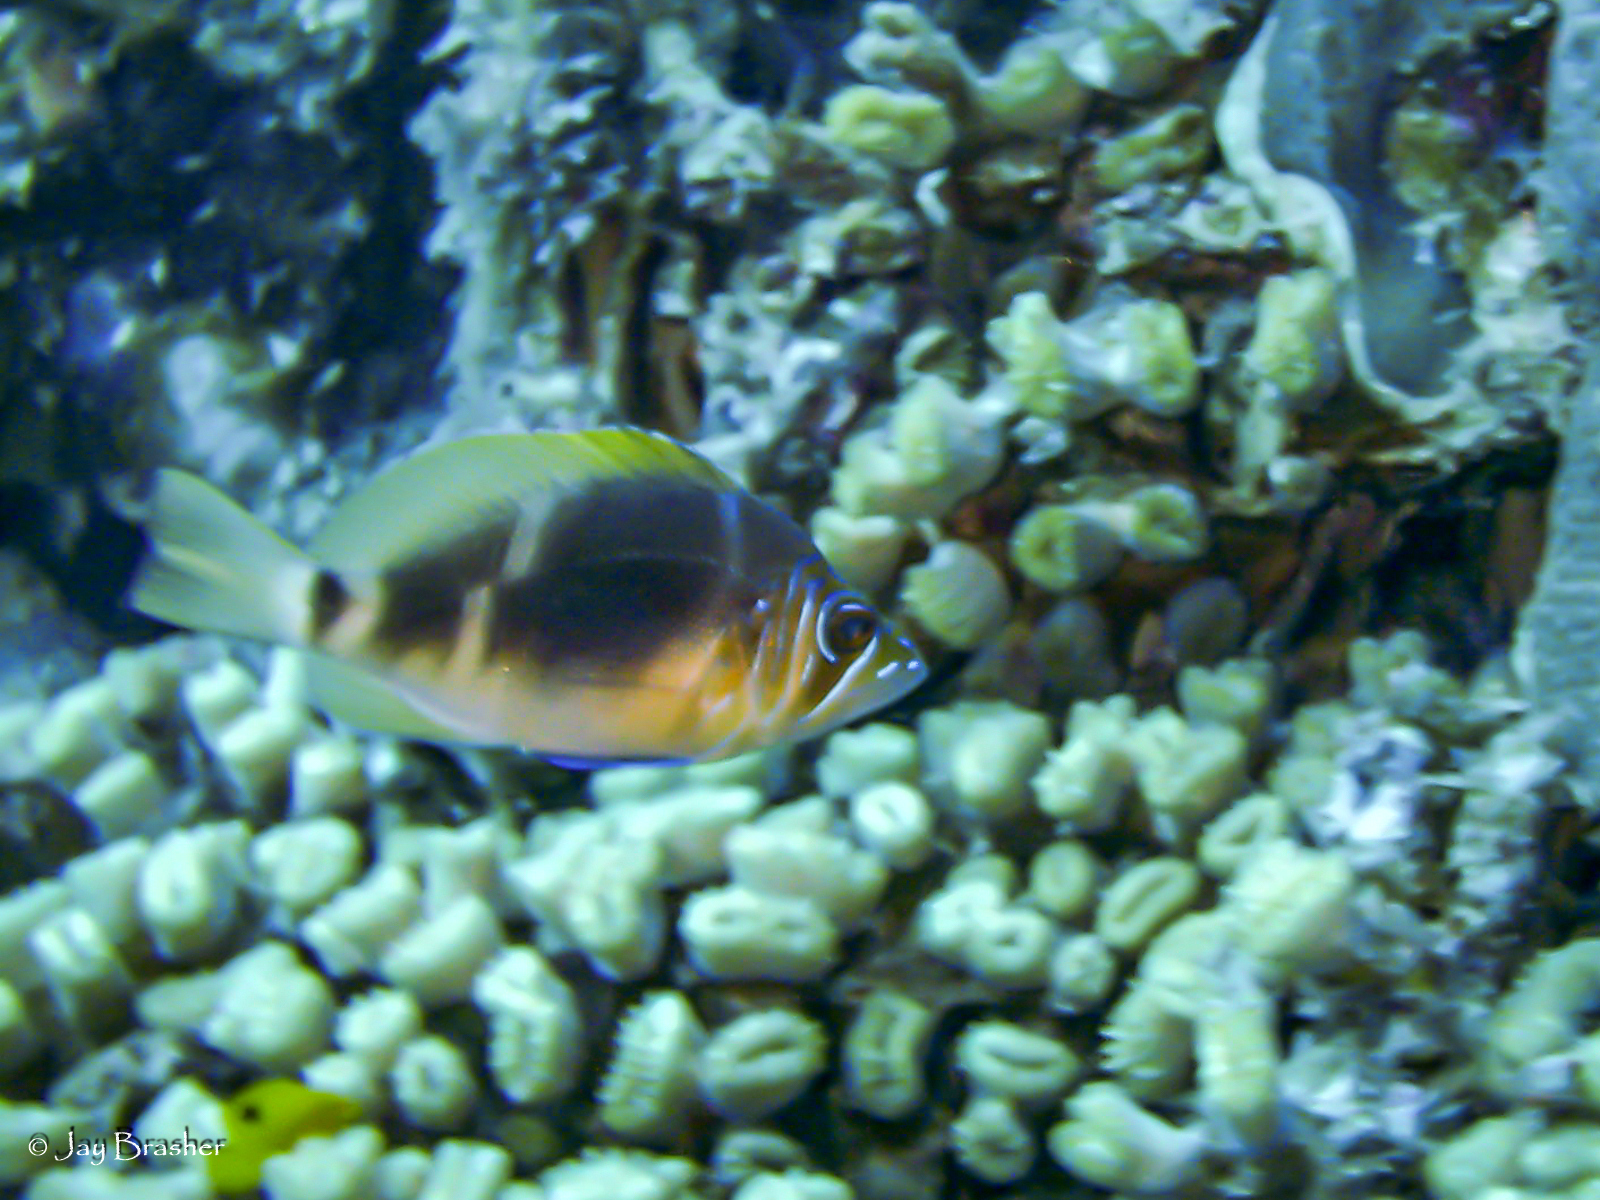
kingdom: Animalia
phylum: Chordata
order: Perciformes
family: Serranidae
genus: Hypoplectrus
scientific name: Hypoplectrus puella
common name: Barred hamlet
